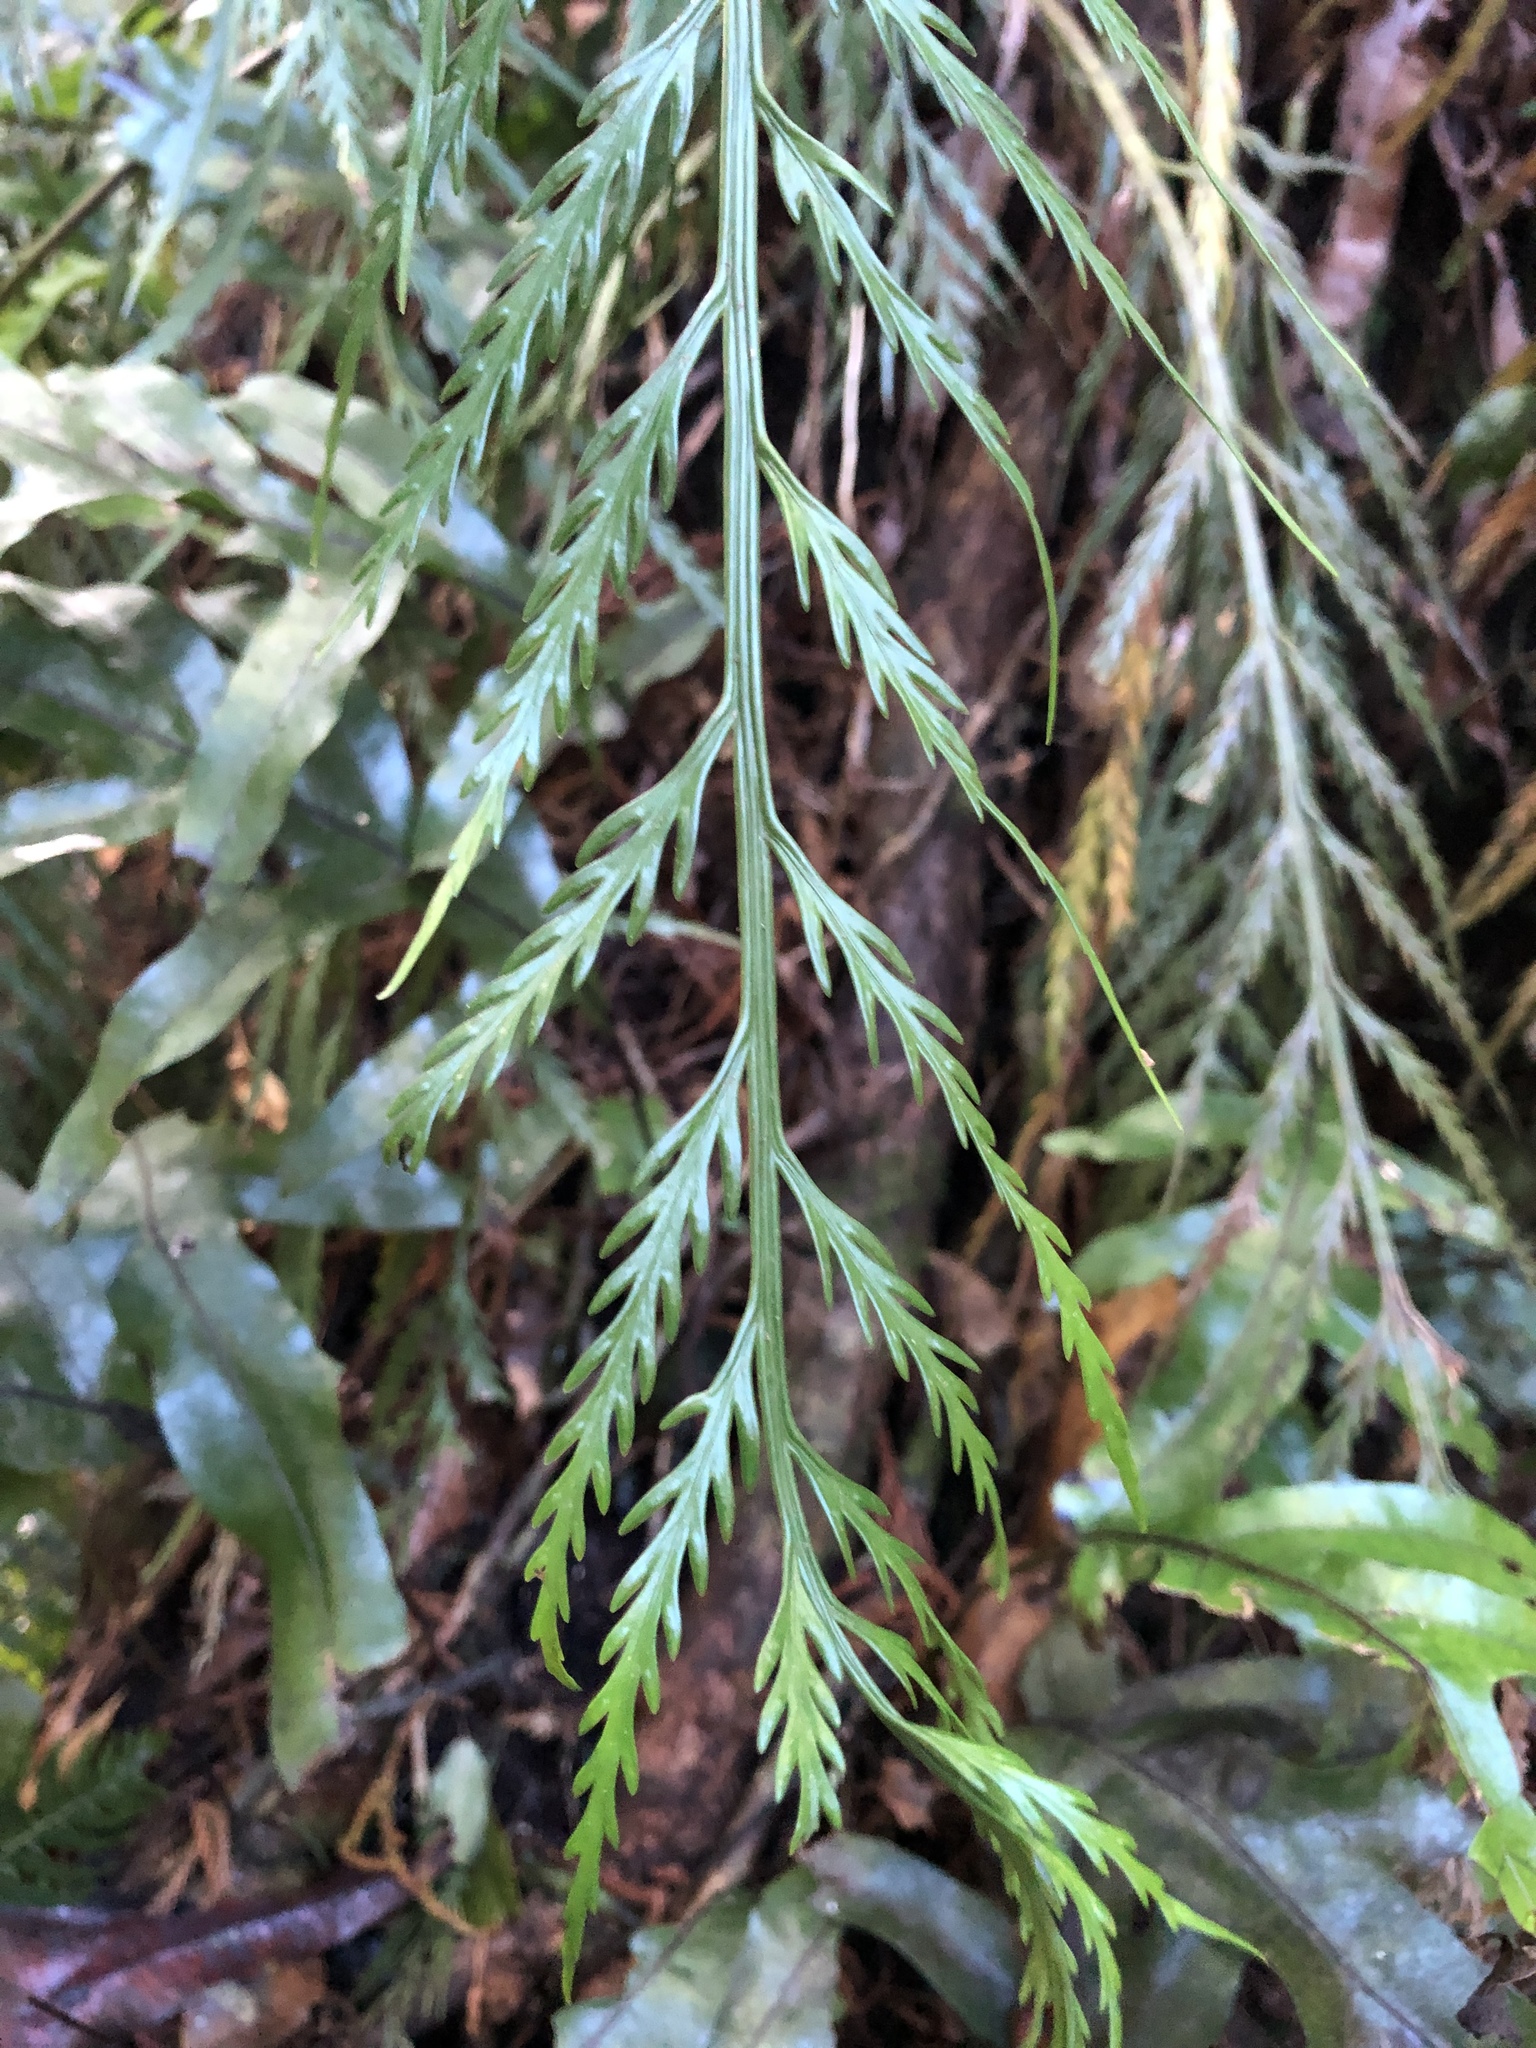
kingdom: Plantae
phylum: Tracheophyta
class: Polypodiopsida
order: Polypodiales
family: Aspleniaceae
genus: Asplenium
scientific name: Asplenium flaccidum
